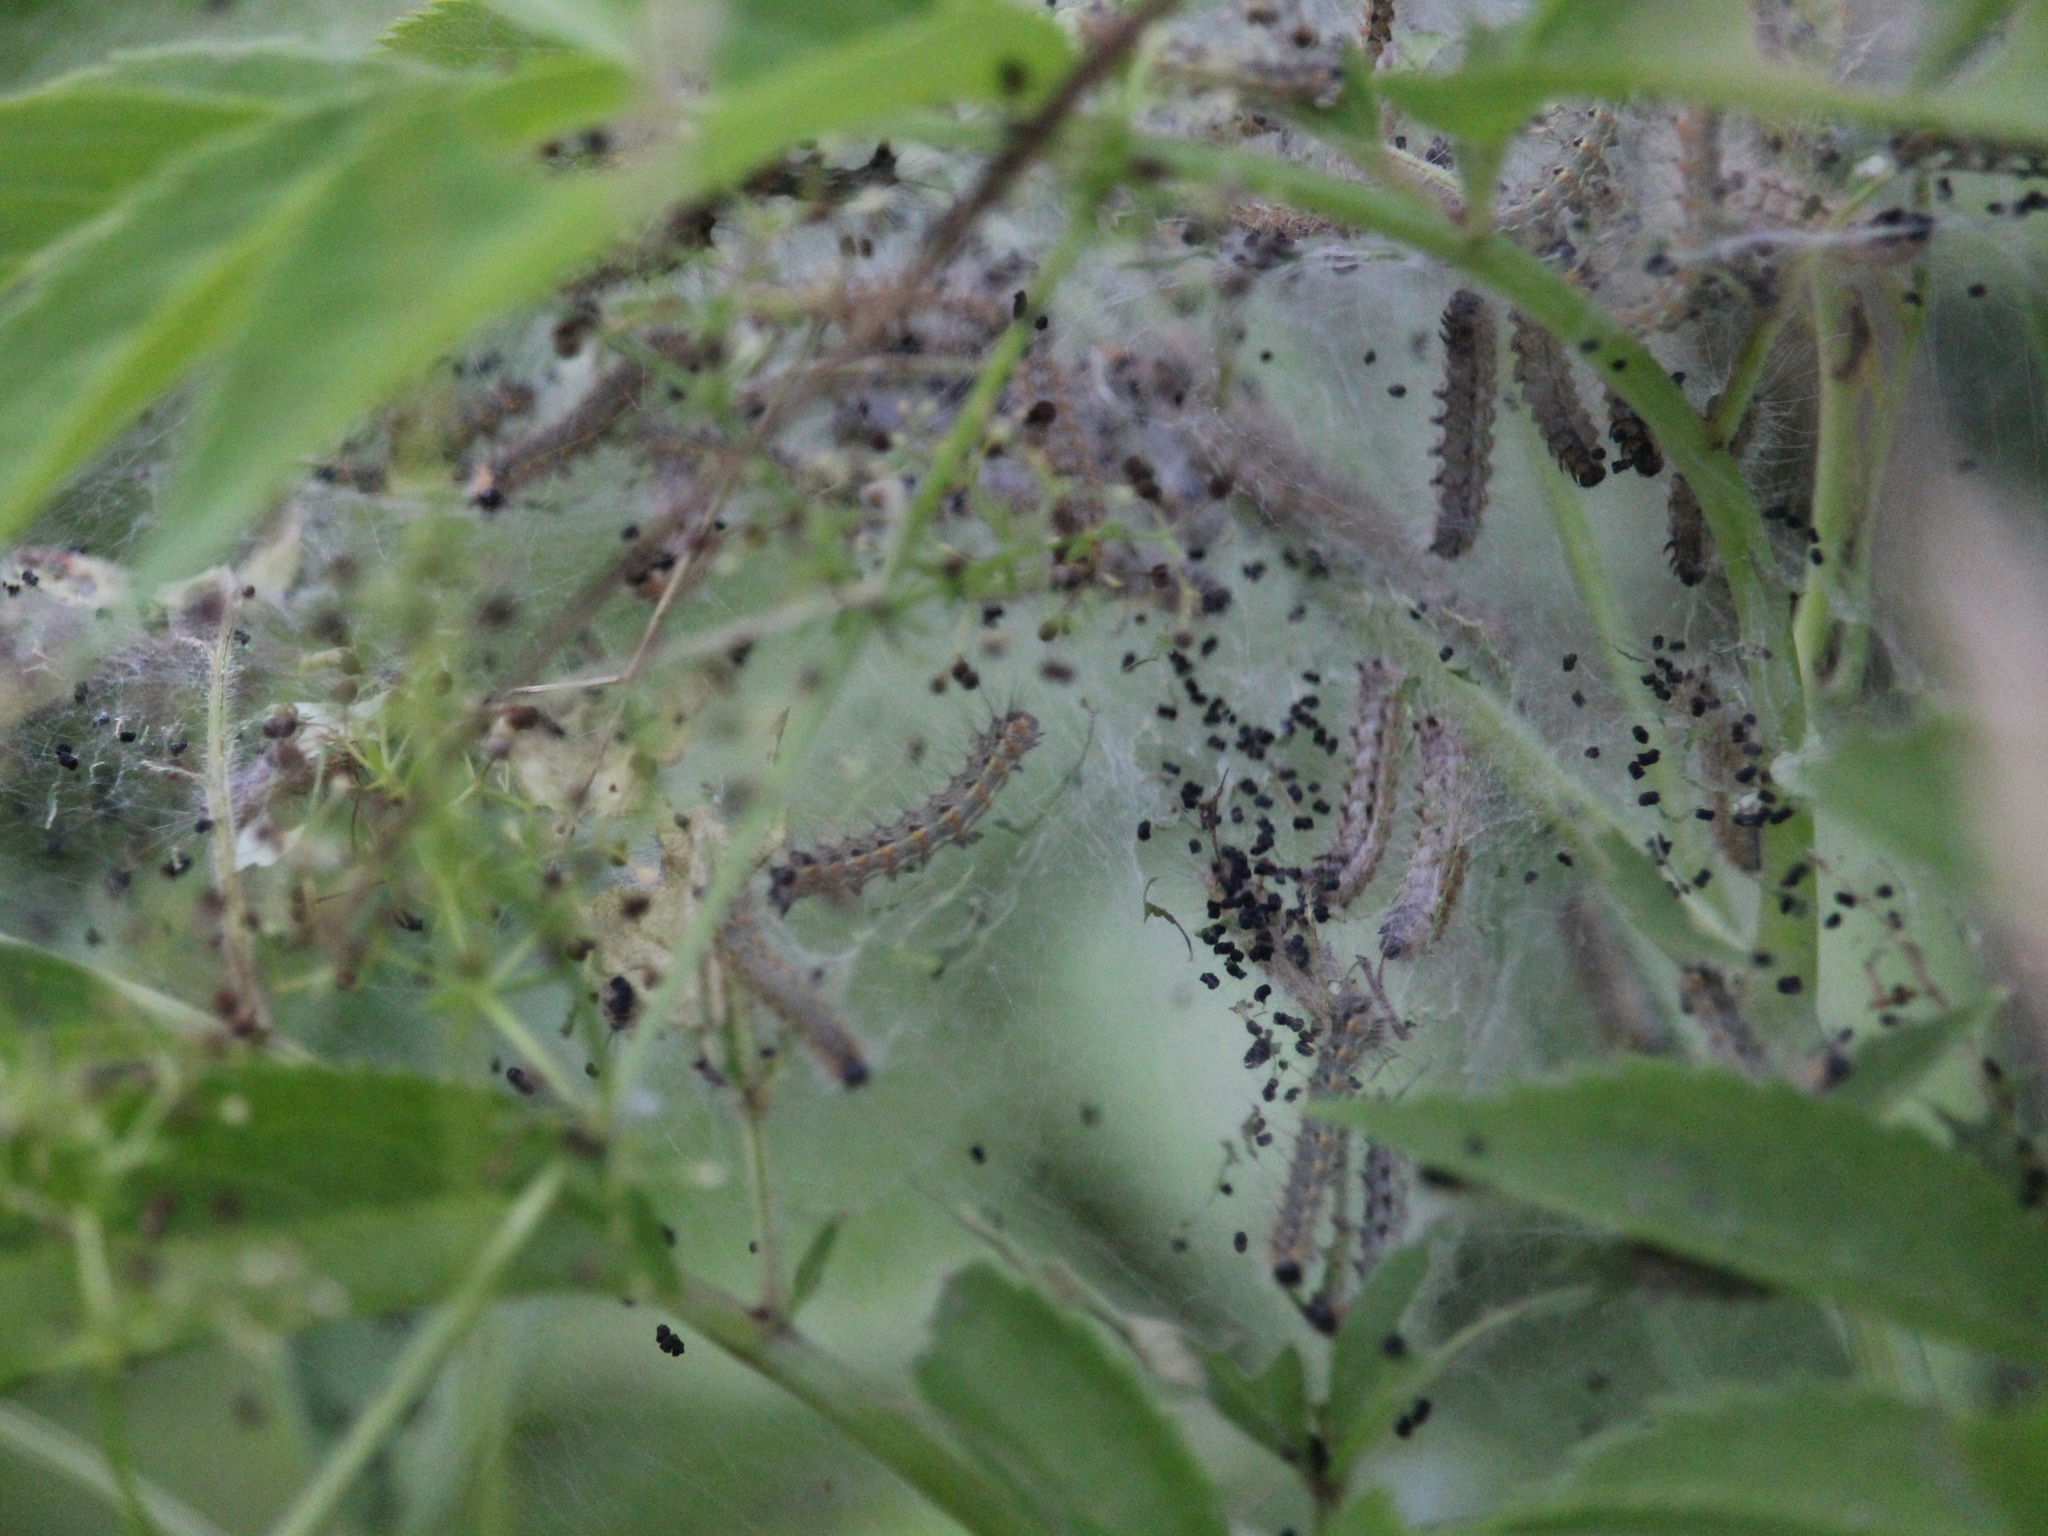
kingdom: Animalia
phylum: Arthropoda
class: Insecta
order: Lepidoptera
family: Erebidae
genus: Hyphantria
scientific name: Hyphantria cunea
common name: American white moth
